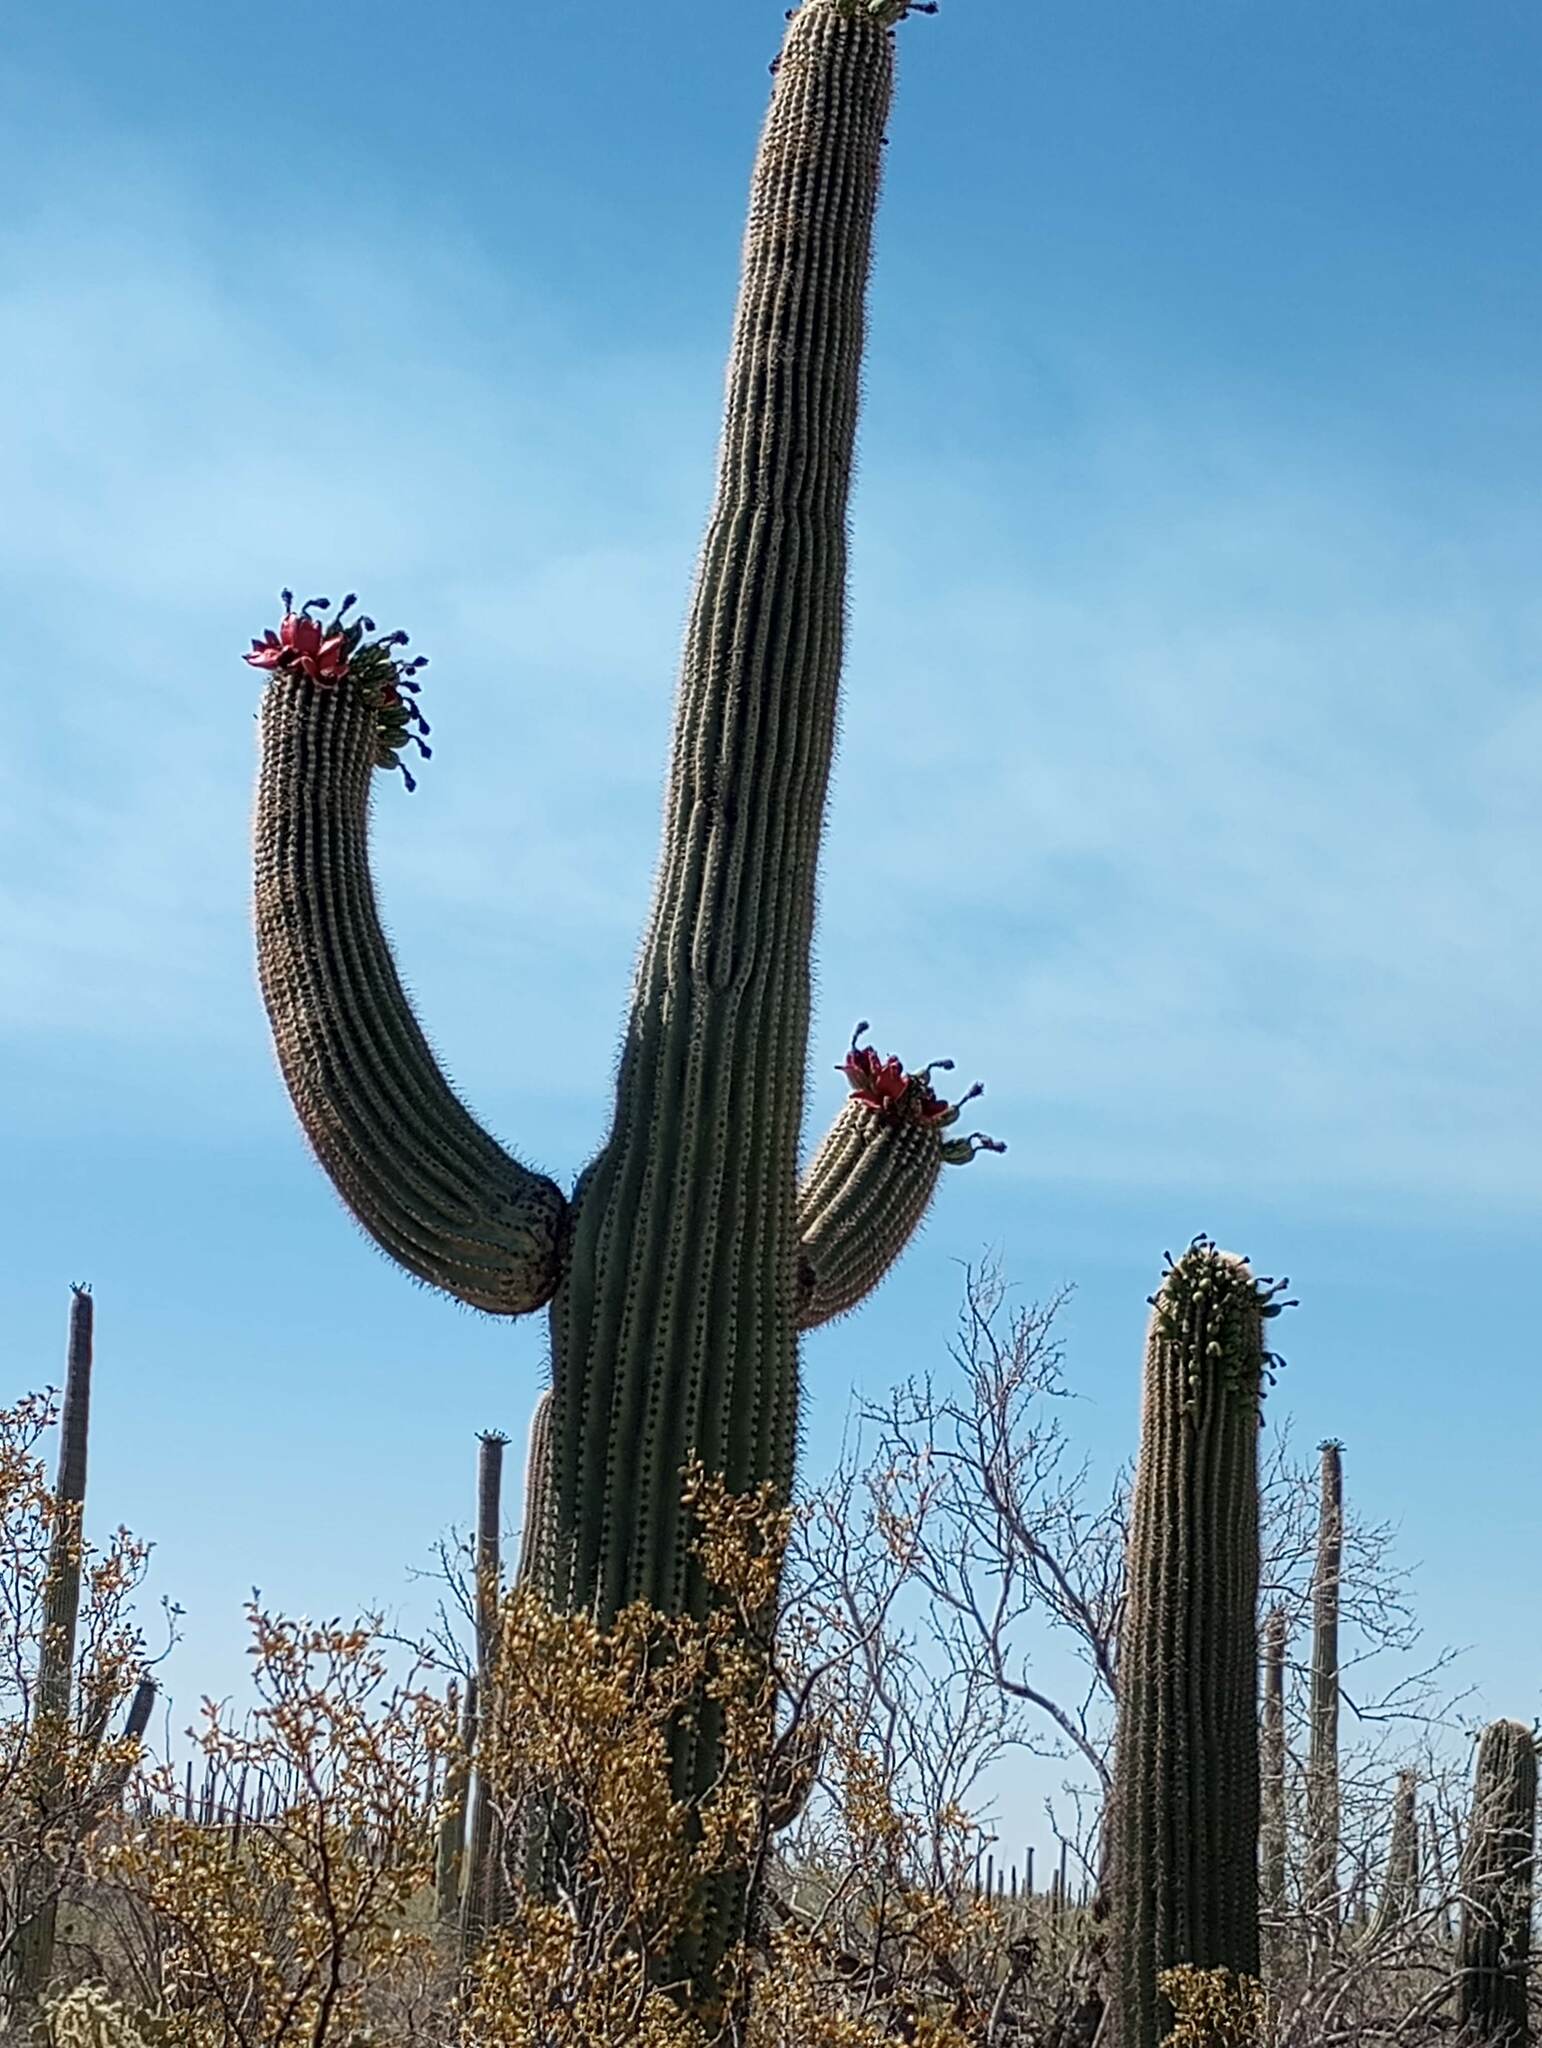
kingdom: Plantae
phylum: Tracheophyta
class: Magnoliopsida
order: Caryophyllales
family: Cactaceae
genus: Carnegiea
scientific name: Carnegiea gigantea
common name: Saguaro
